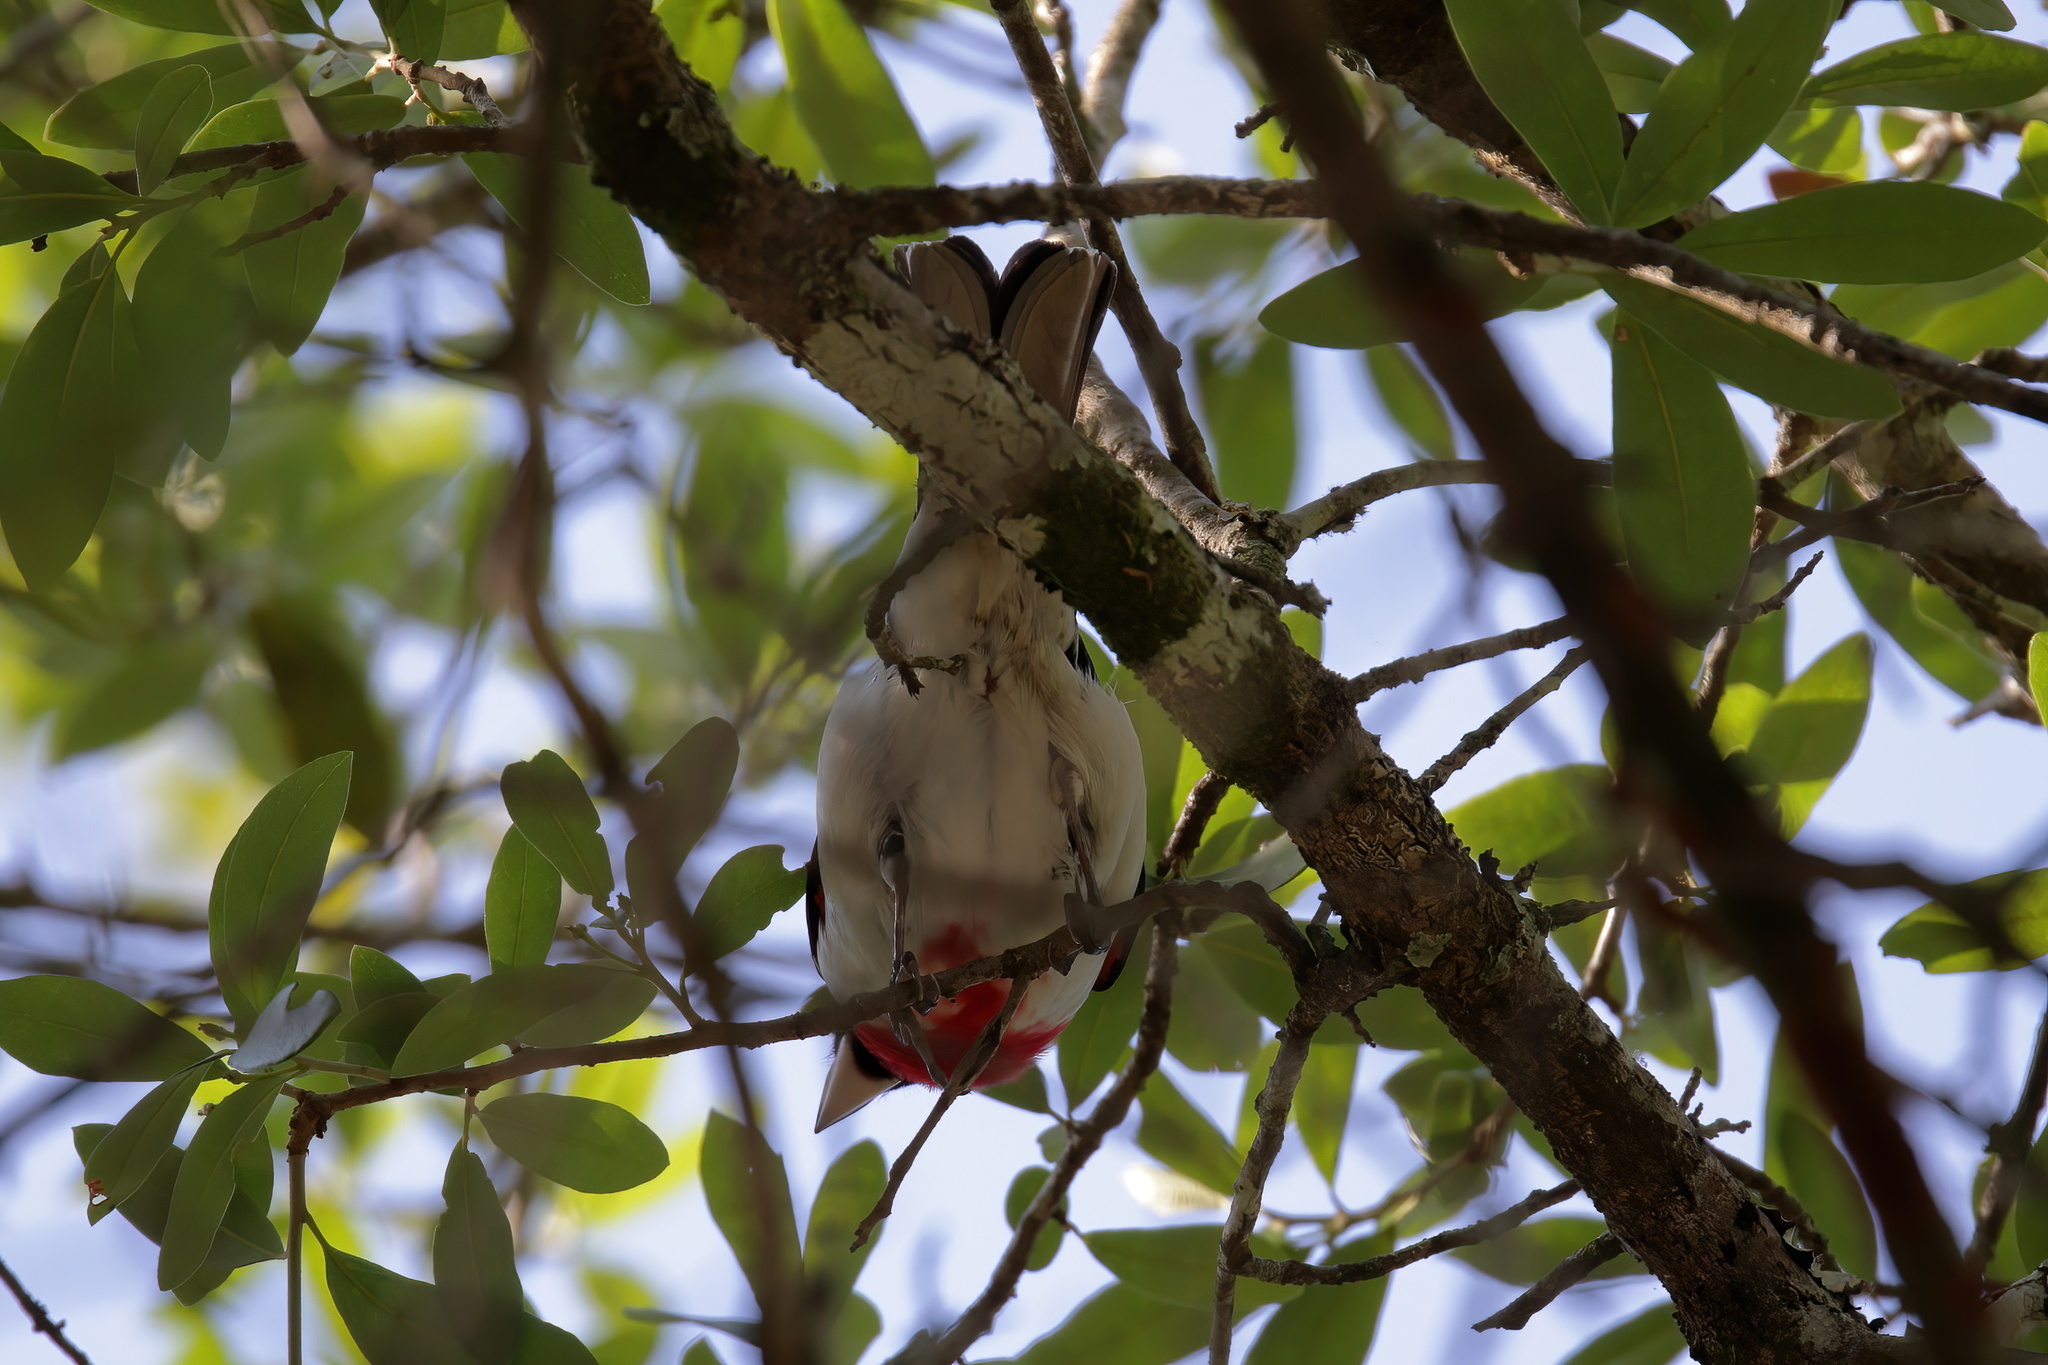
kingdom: Animalia
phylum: Chordata
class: Aves
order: Passeriformes
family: Cardinalidae
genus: Pheucticus
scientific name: Pheucticus ludovicianus
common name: Rose-breasted grosbeak
